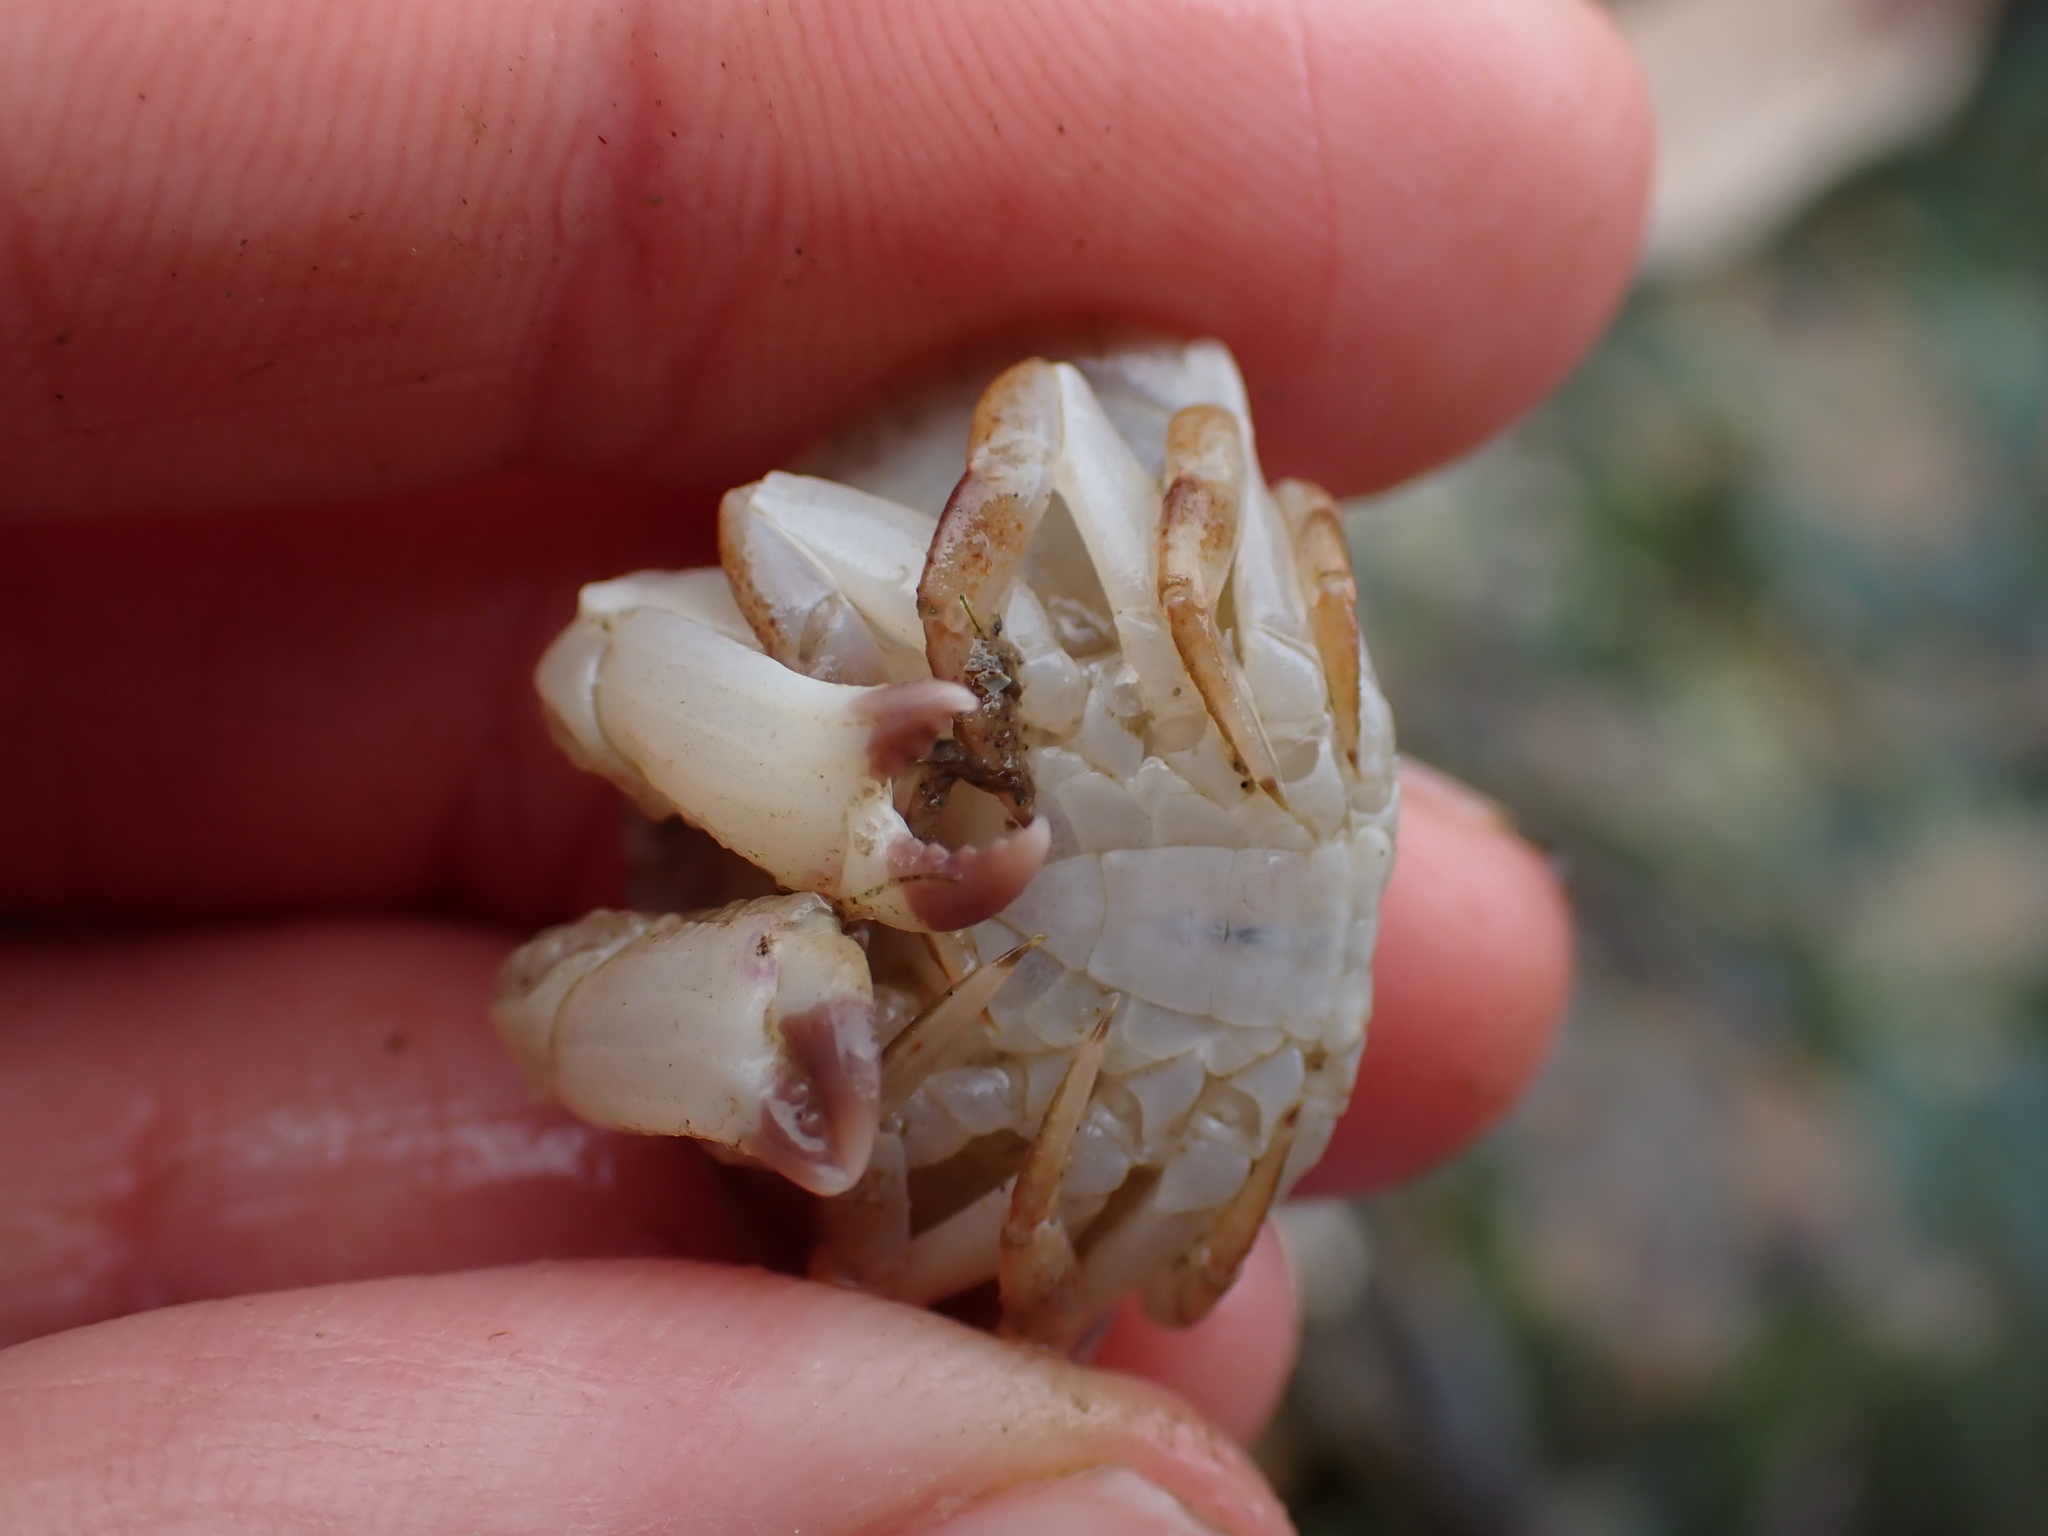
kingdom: Animalia
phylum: Arthropoda
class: Malacostraca
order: Decapoda
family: Cancridae
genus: Cancer
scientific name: Cancer productus
